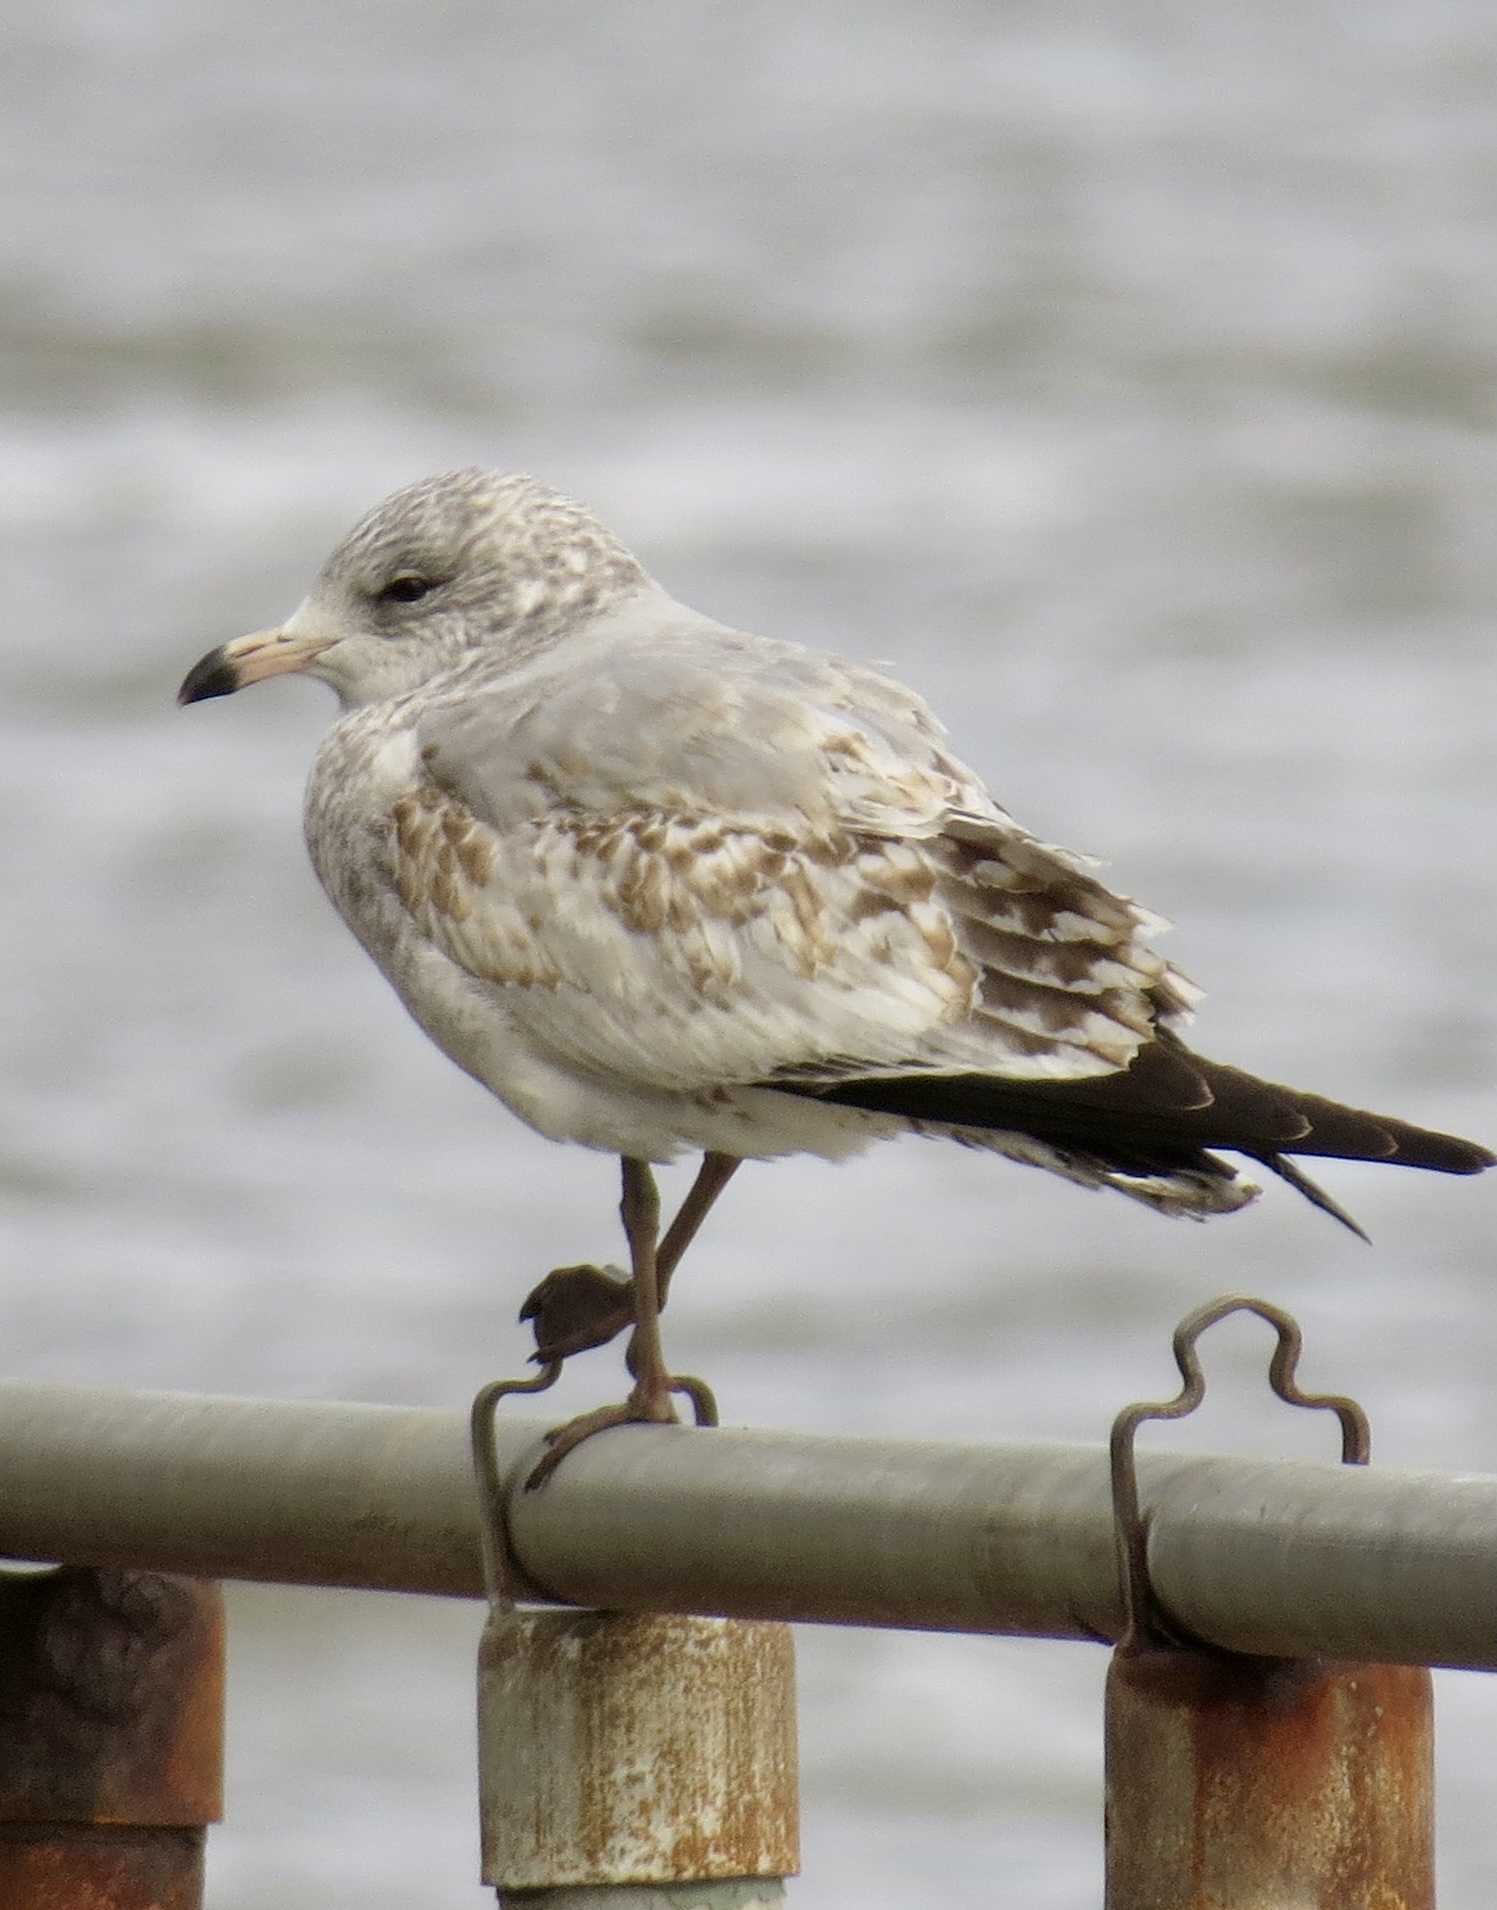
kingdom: Animalia
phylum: Chordata
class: Aves
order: Charadriiformes
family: Laridae
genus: Larus
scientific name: Larus delawarensis
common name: Ring-billed gull
